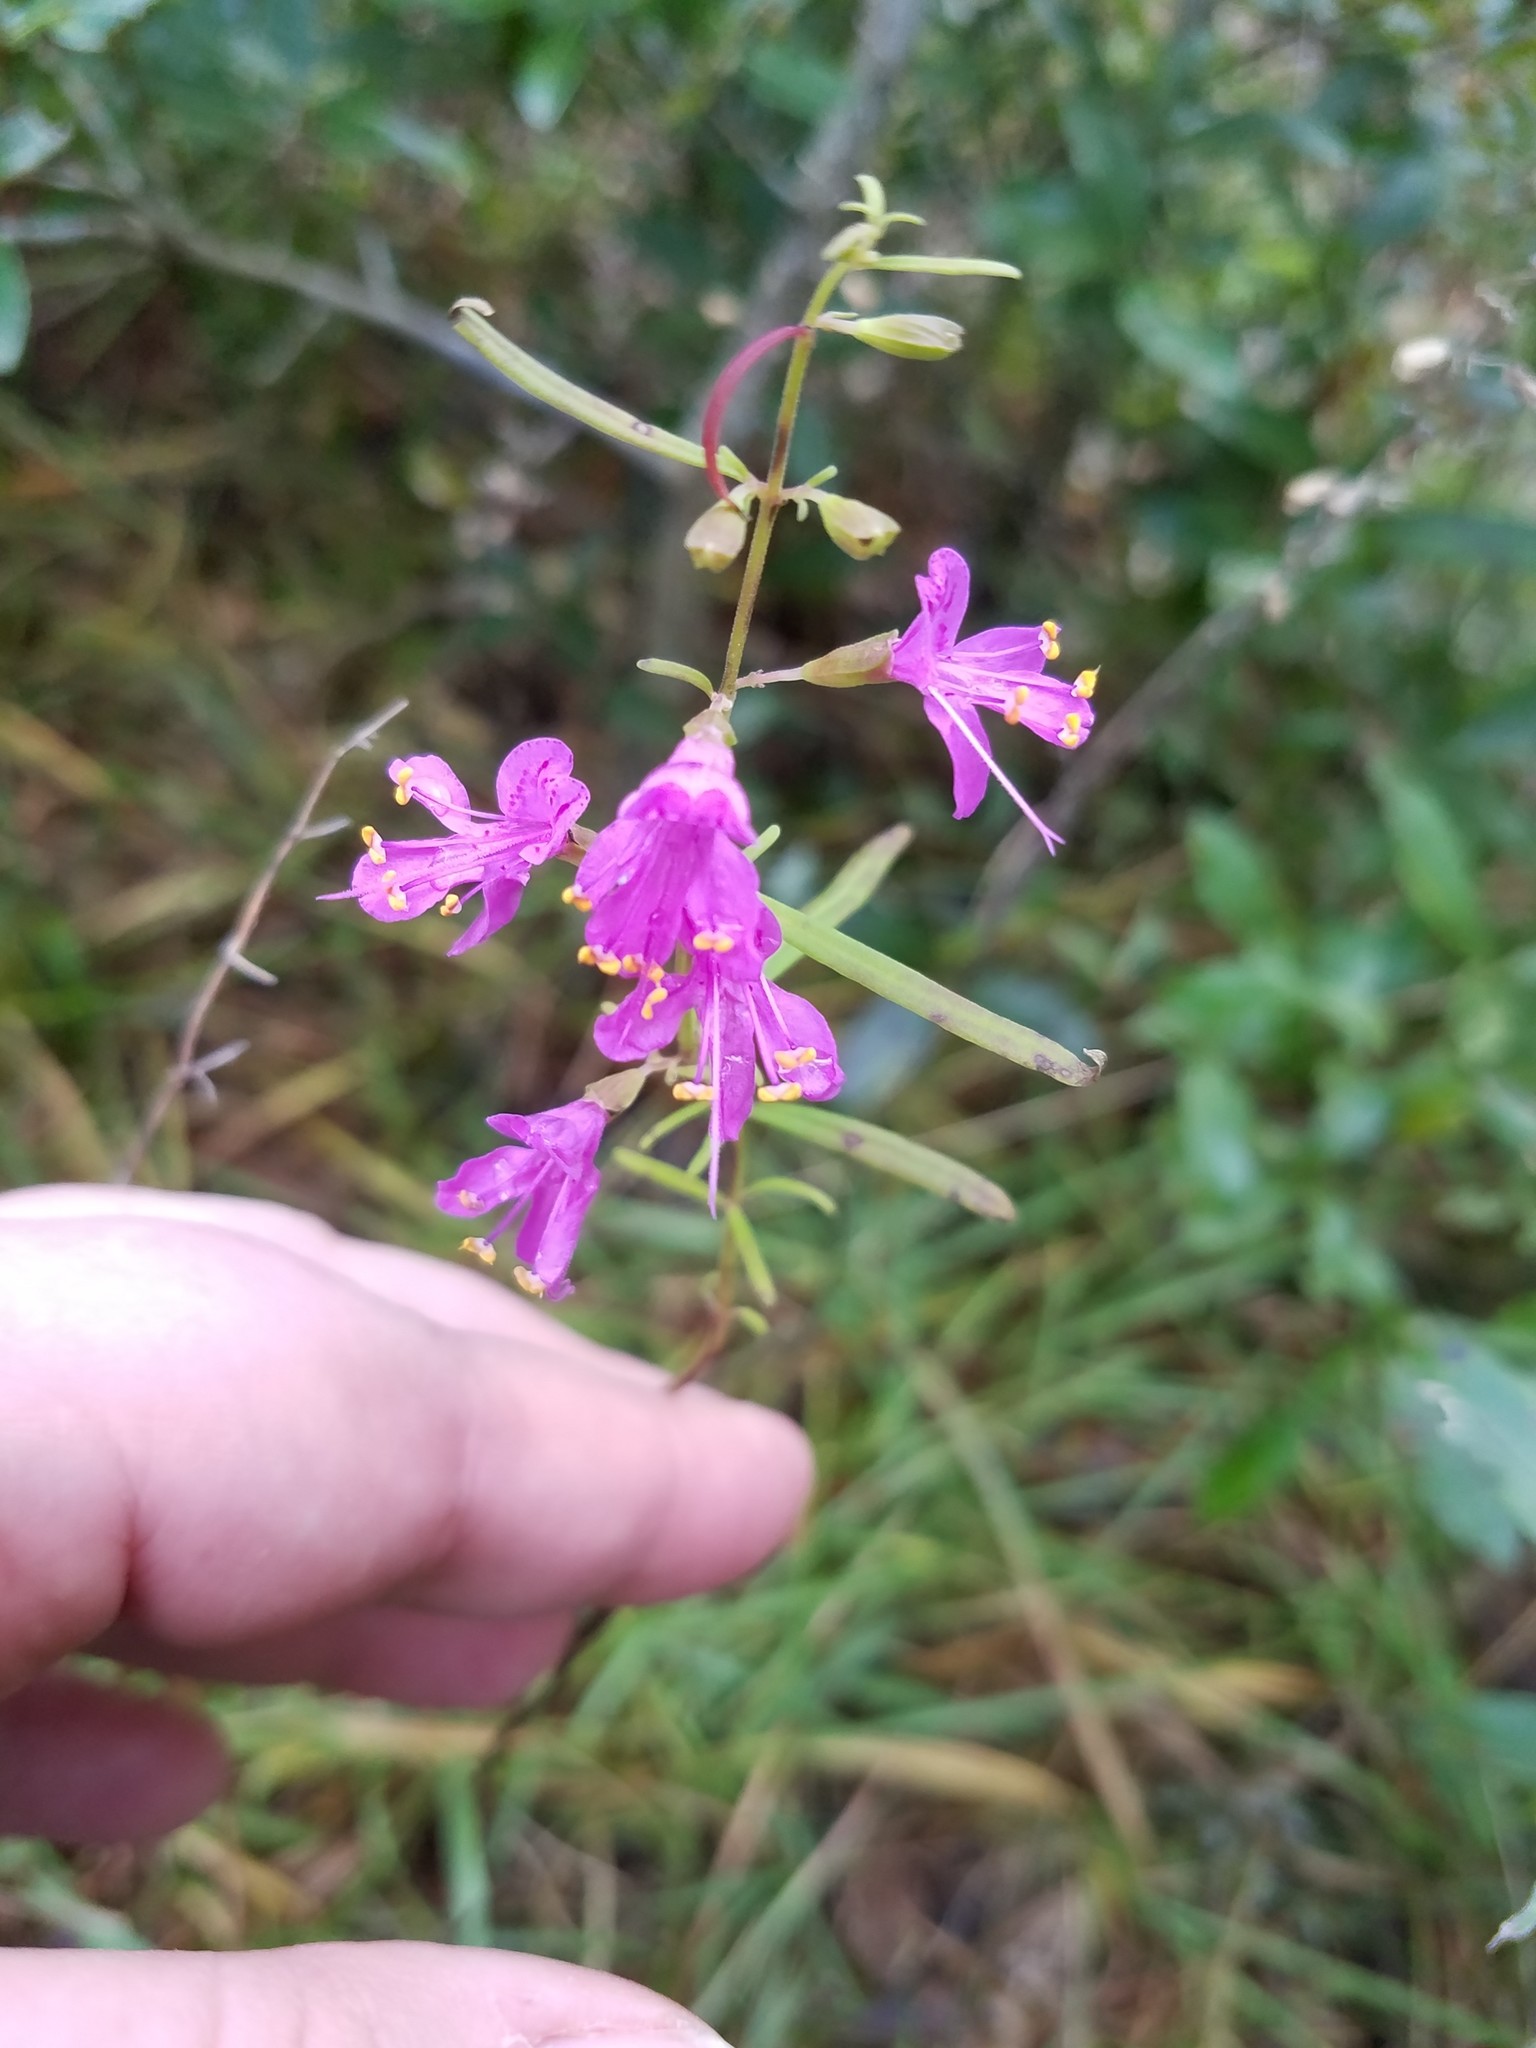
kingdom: Plantae
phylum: Tracheophyta
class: Magnoliopsida
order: Lamiales
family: Lamiaceae
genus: Dicerandra
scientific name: Dicerandra linearifolia
